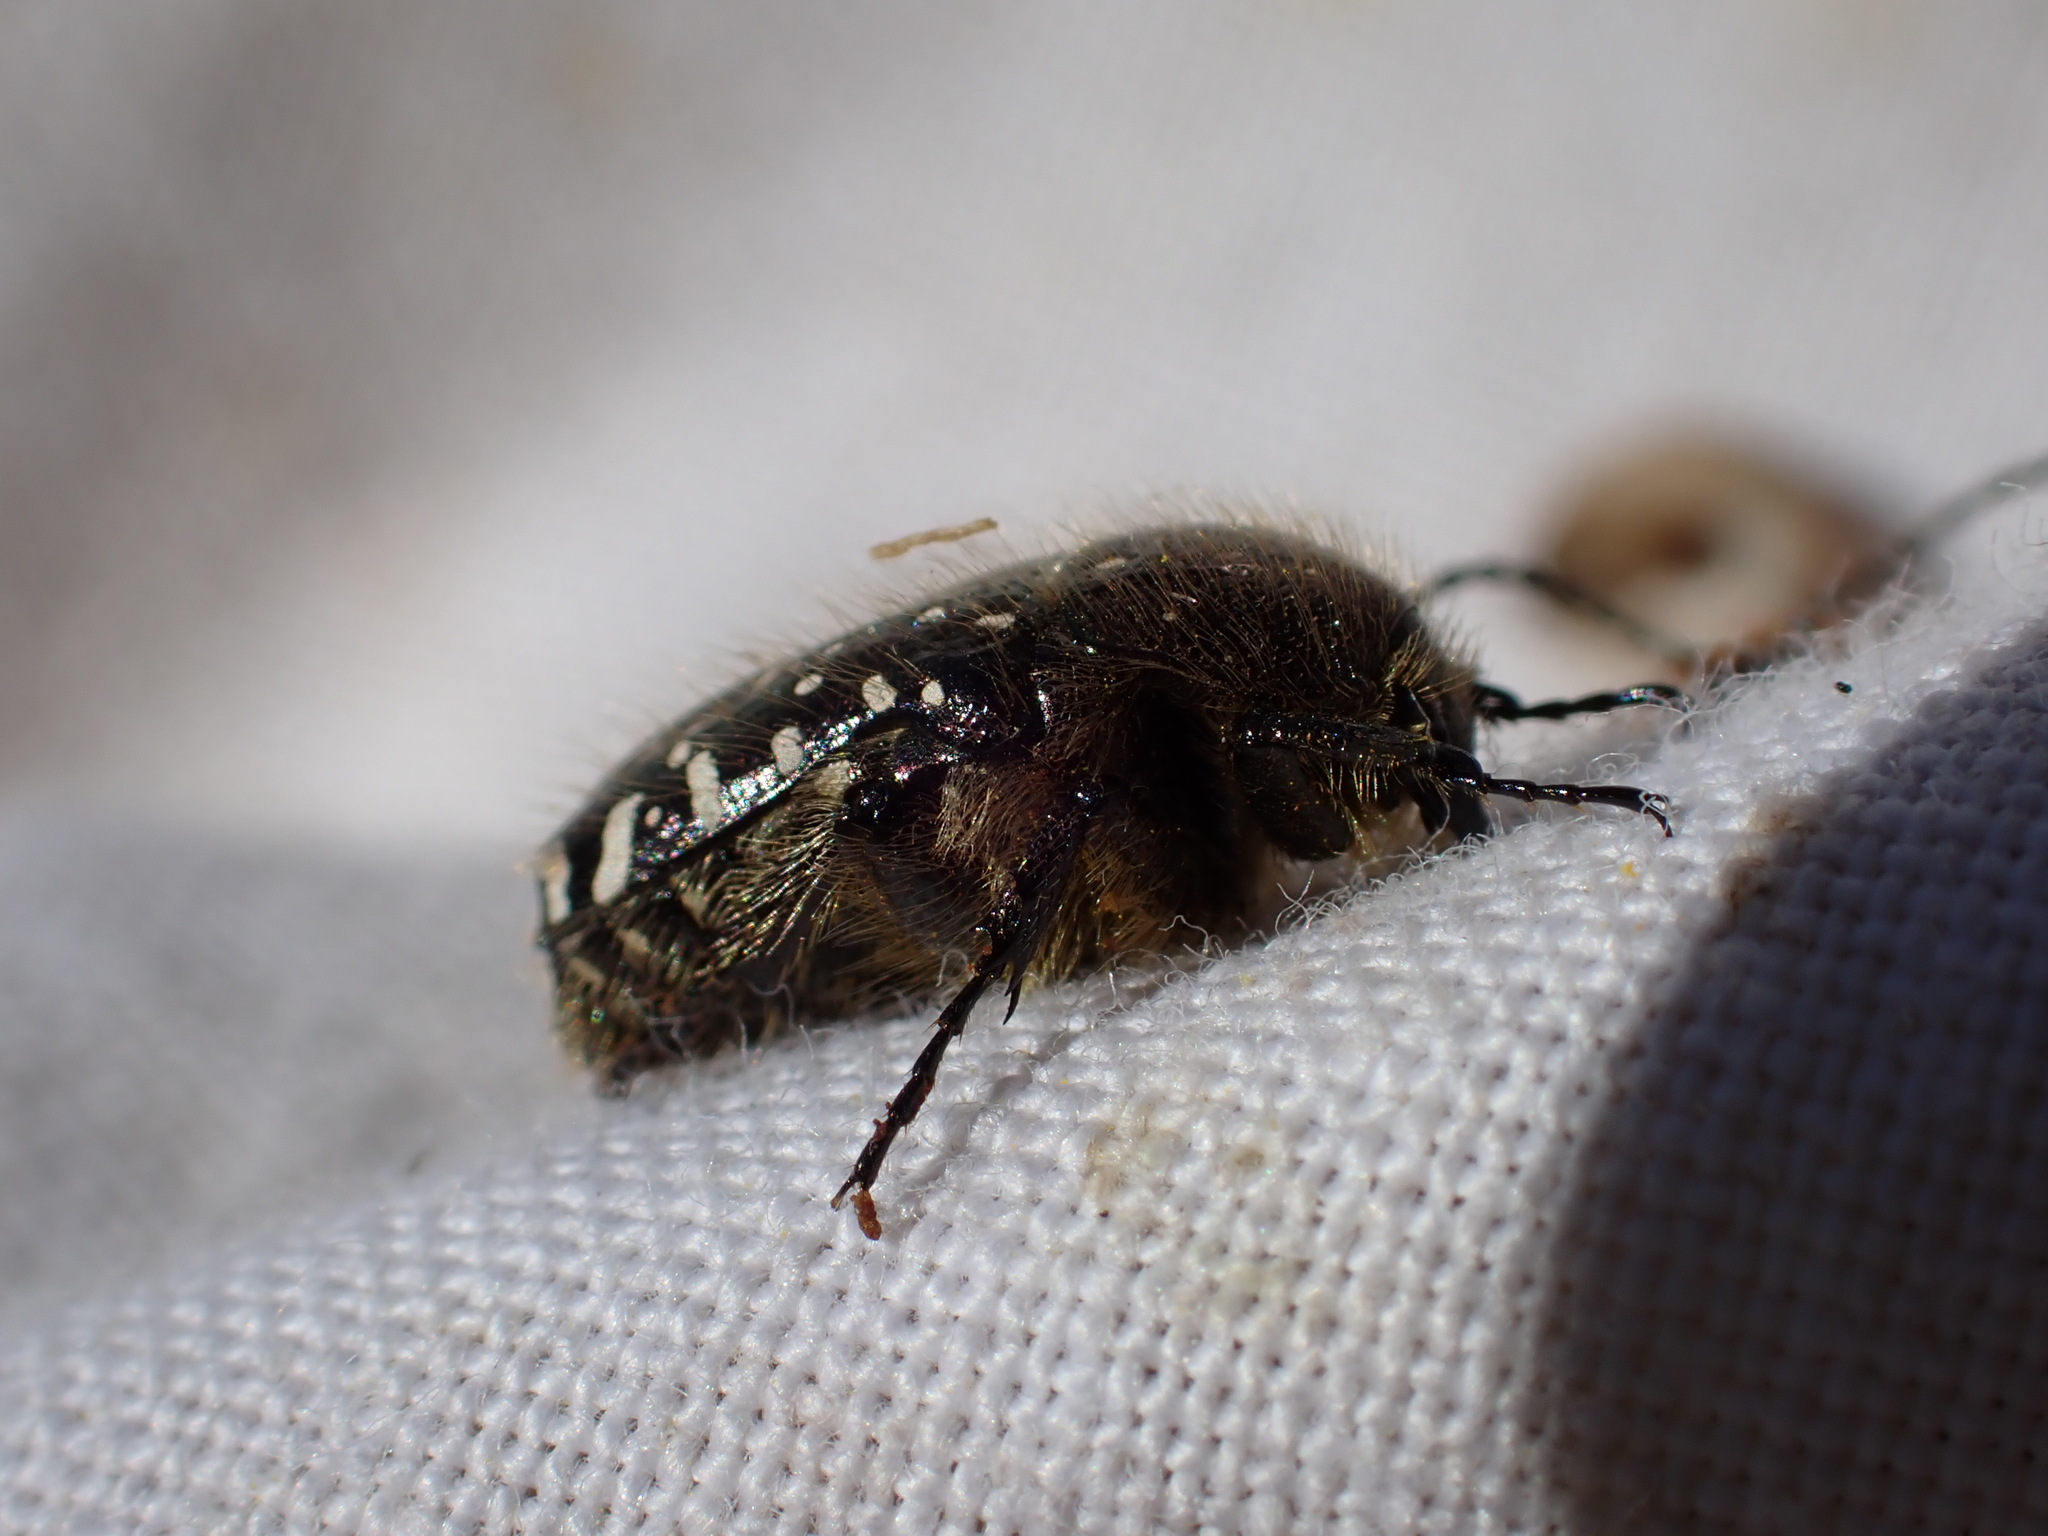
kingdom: Animalia
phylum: Arthropoda
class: Insecta
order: Coleoptera
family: Scarabaeidae
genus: Oxythyrea
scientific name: Oxythyrea funesta
